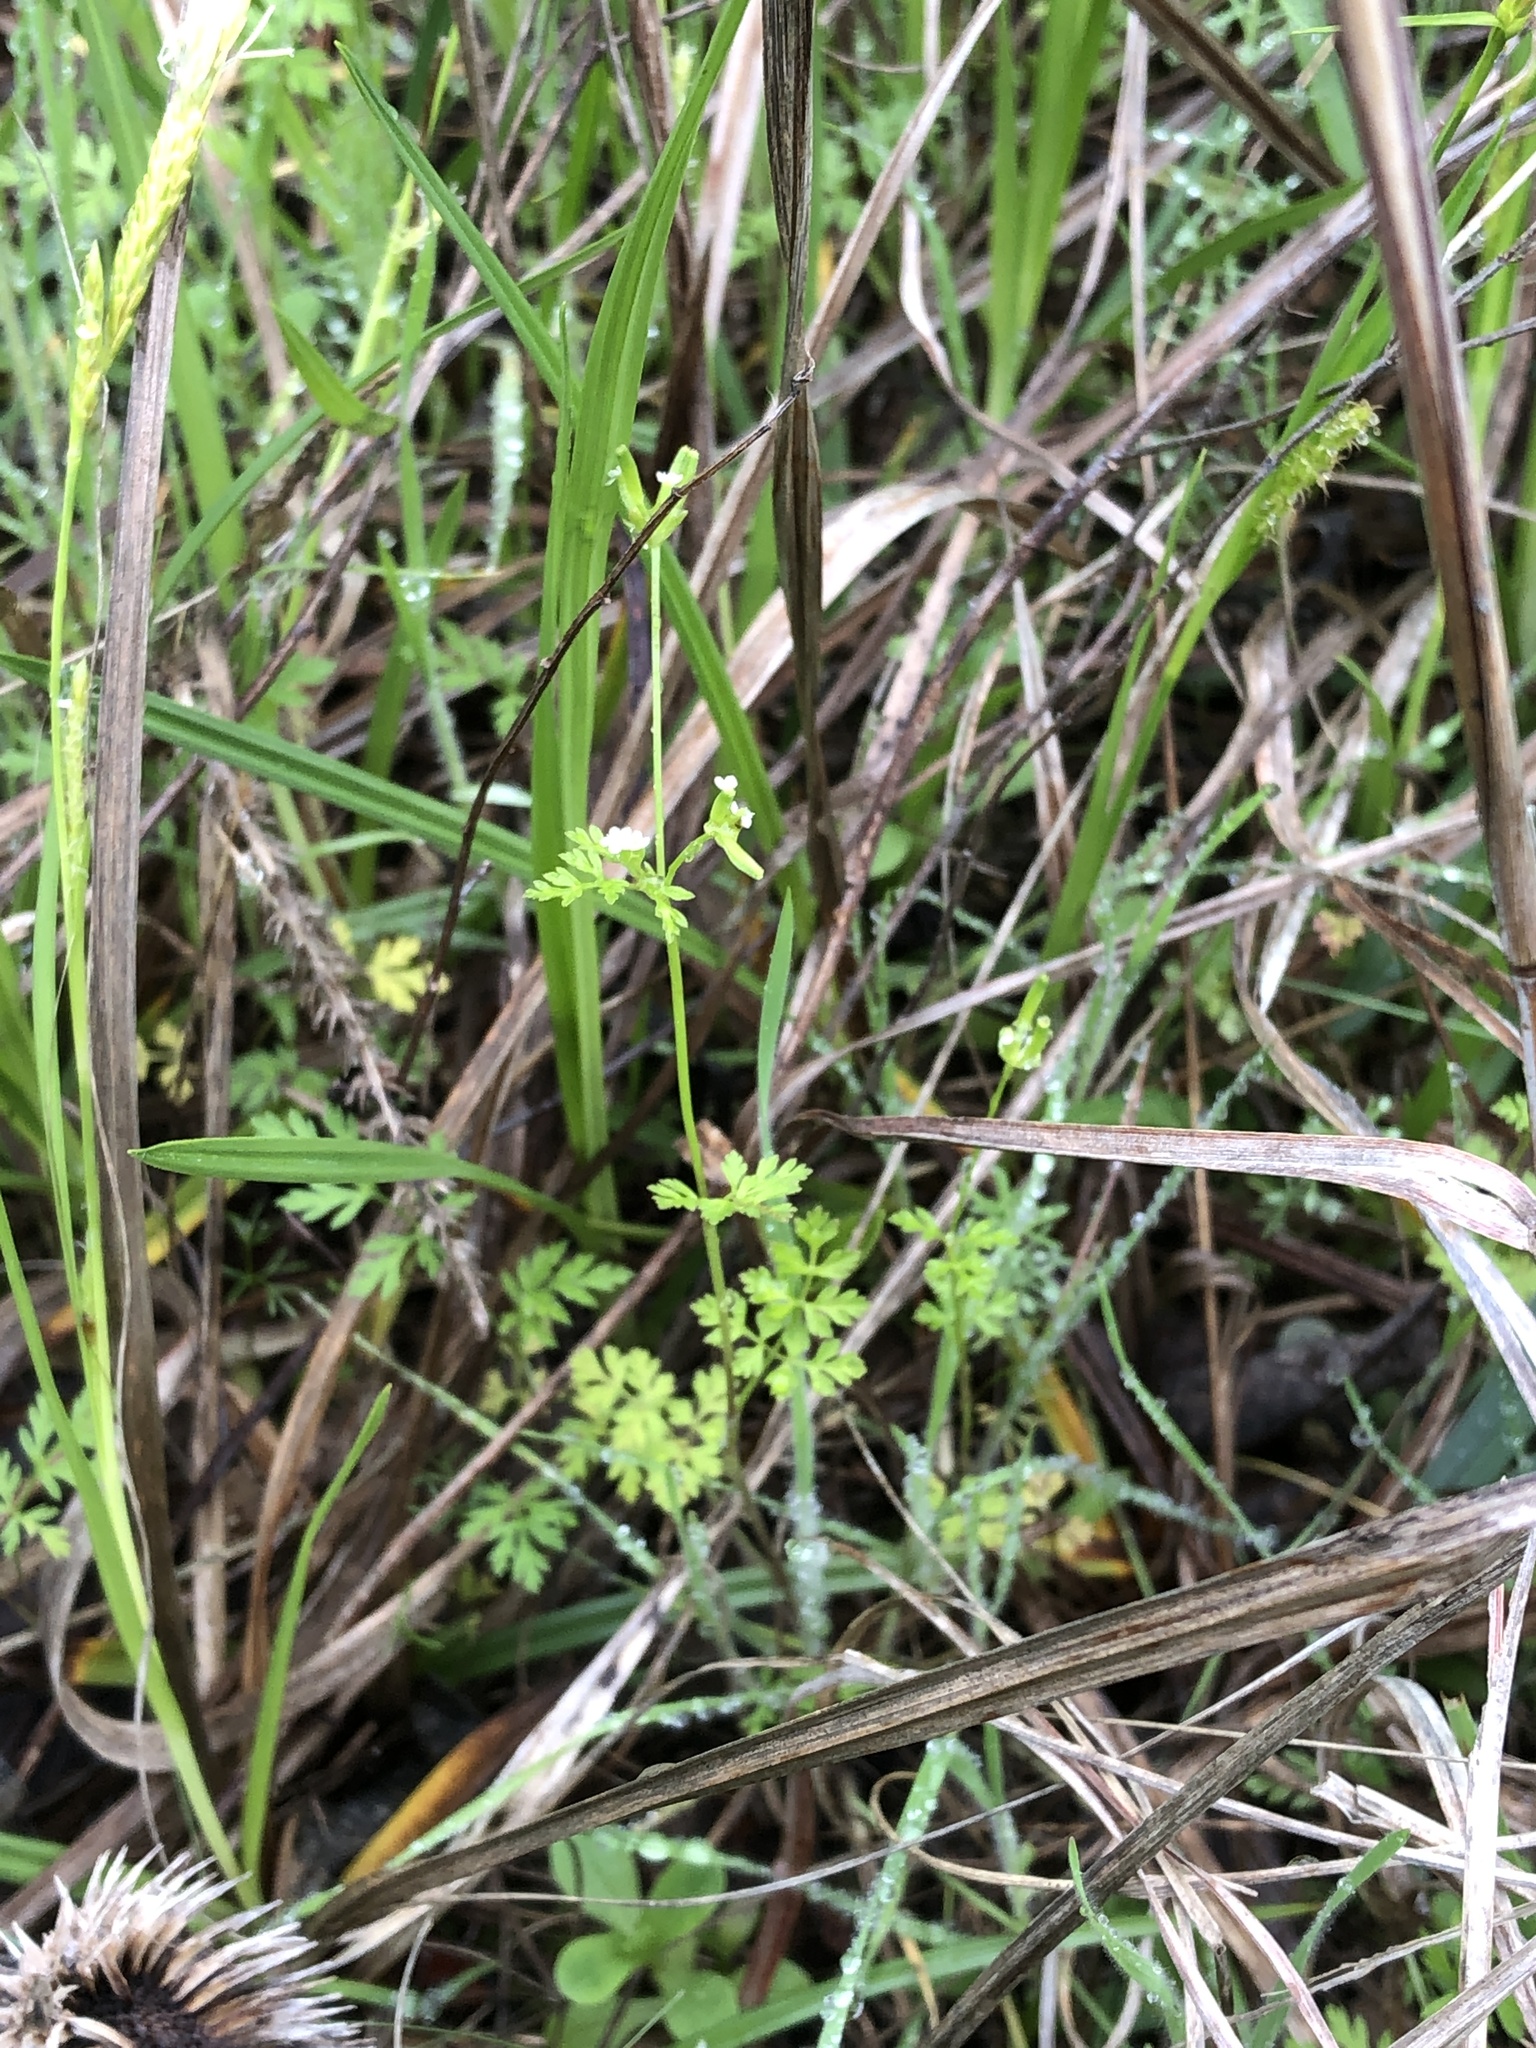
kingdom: Plantae
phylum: Tracheophyta
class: Magnoliopsida
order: Apiales
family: Apiaceae
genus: Chaerophyllum
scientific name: Chaerophyllum tainturieri
